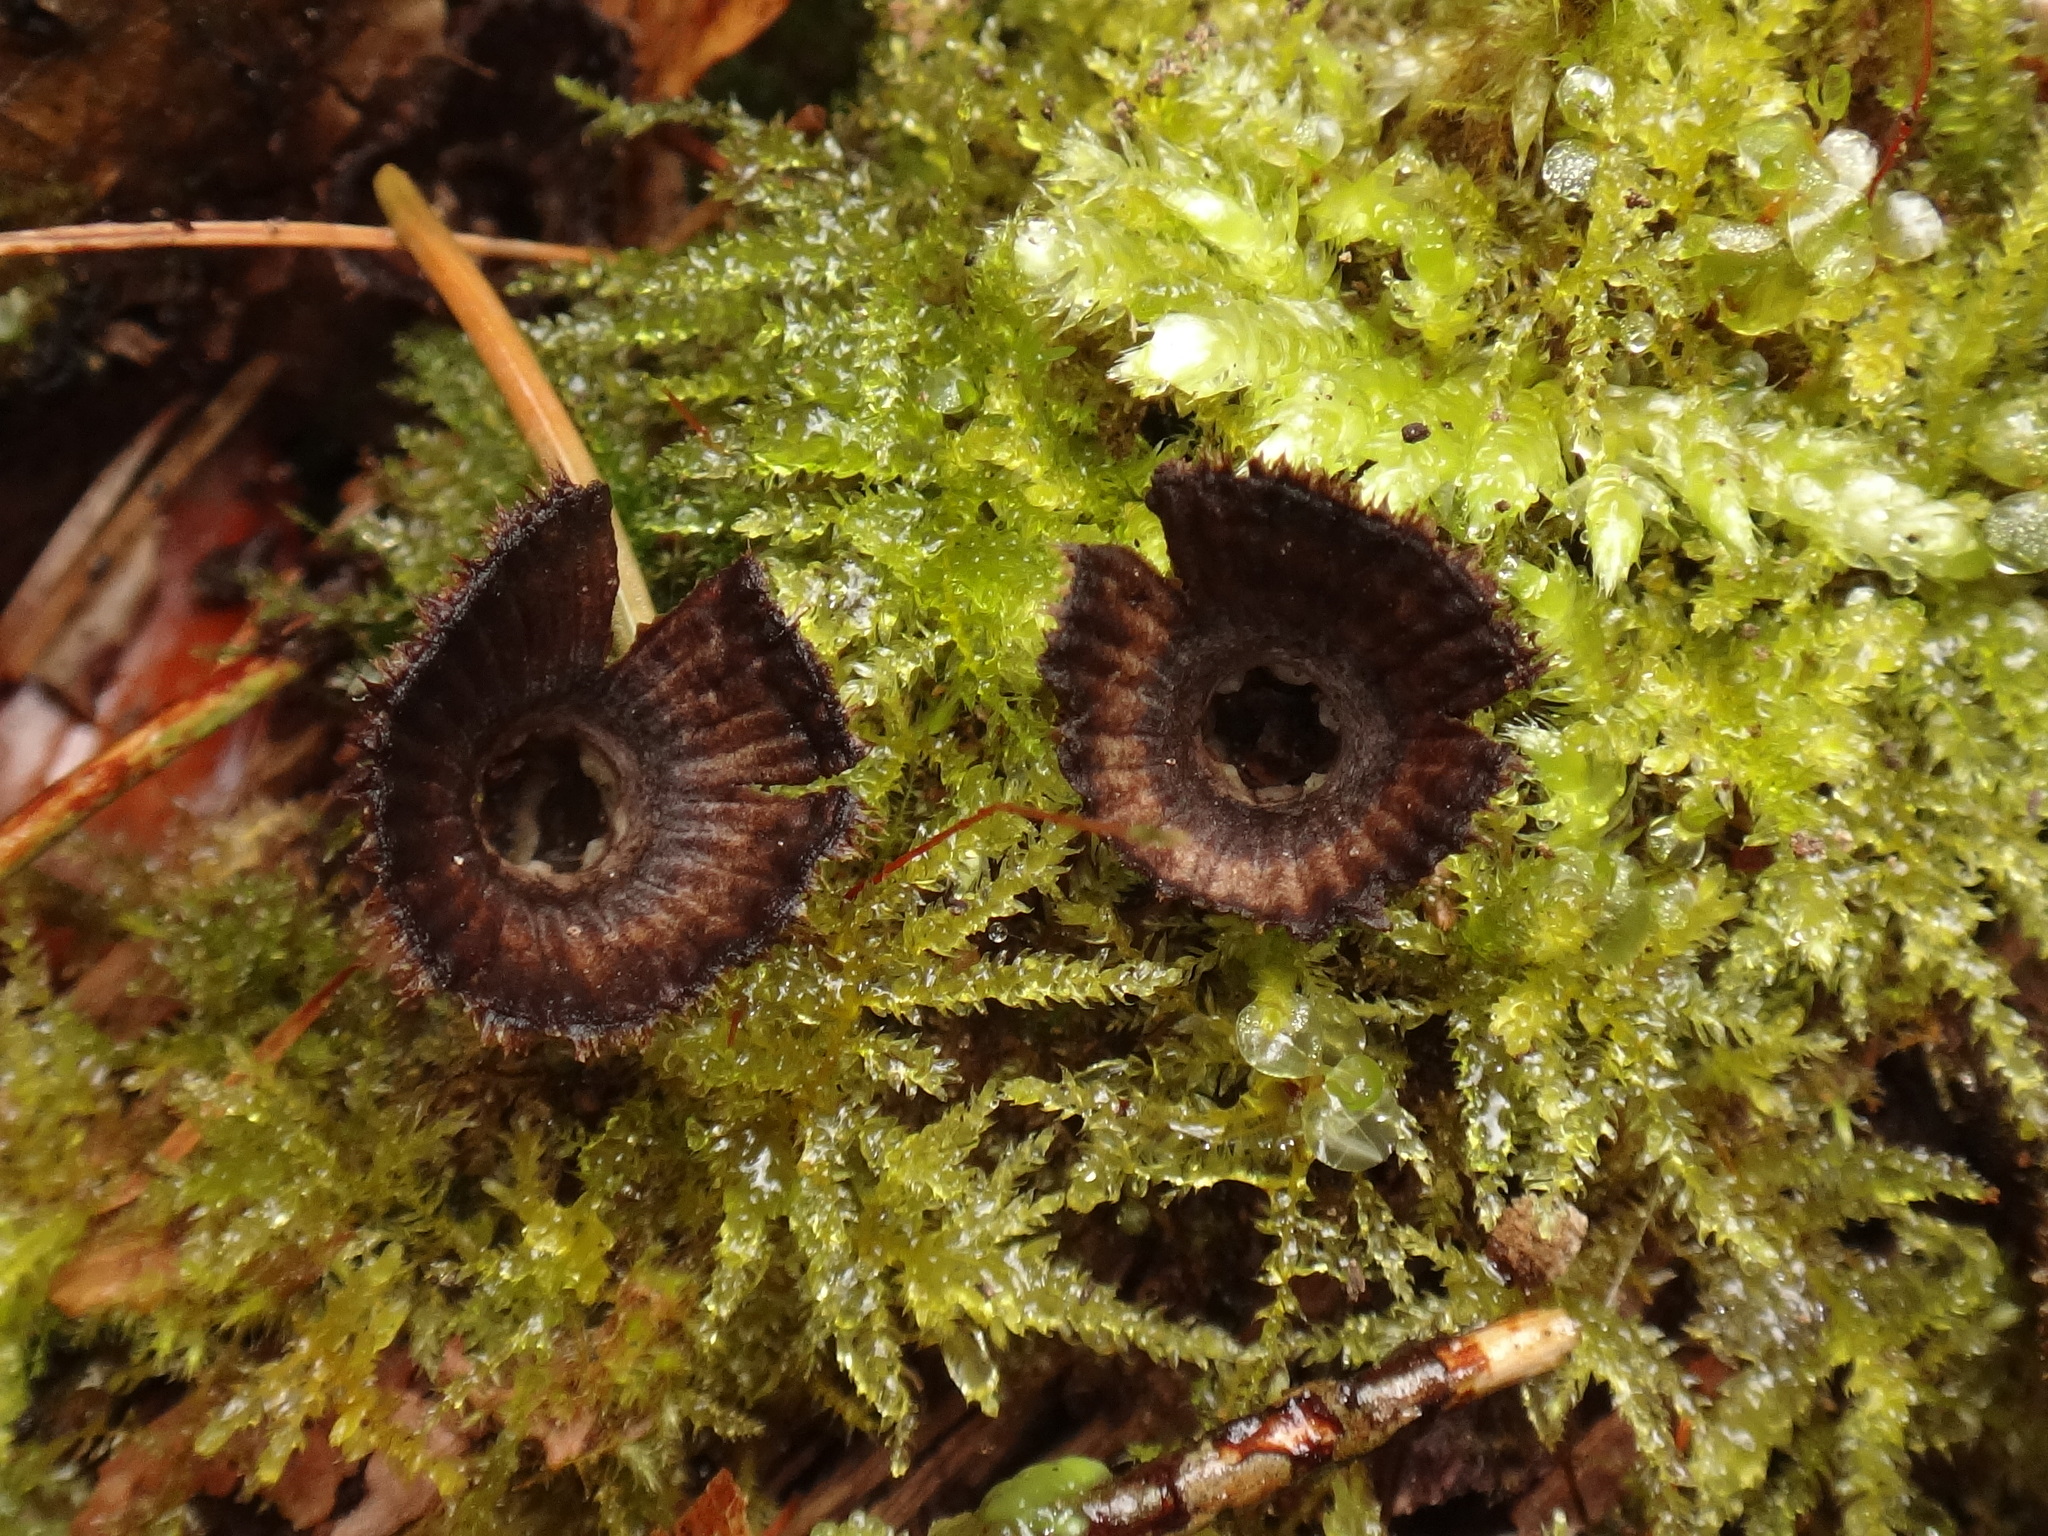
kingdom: Fungi
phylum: Basidiomycota
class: Agaricomycetes
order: Agaricales
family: Agaricaceae
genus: Cyathus
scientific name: Cyathus striatus
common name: Fluted bird's nest
